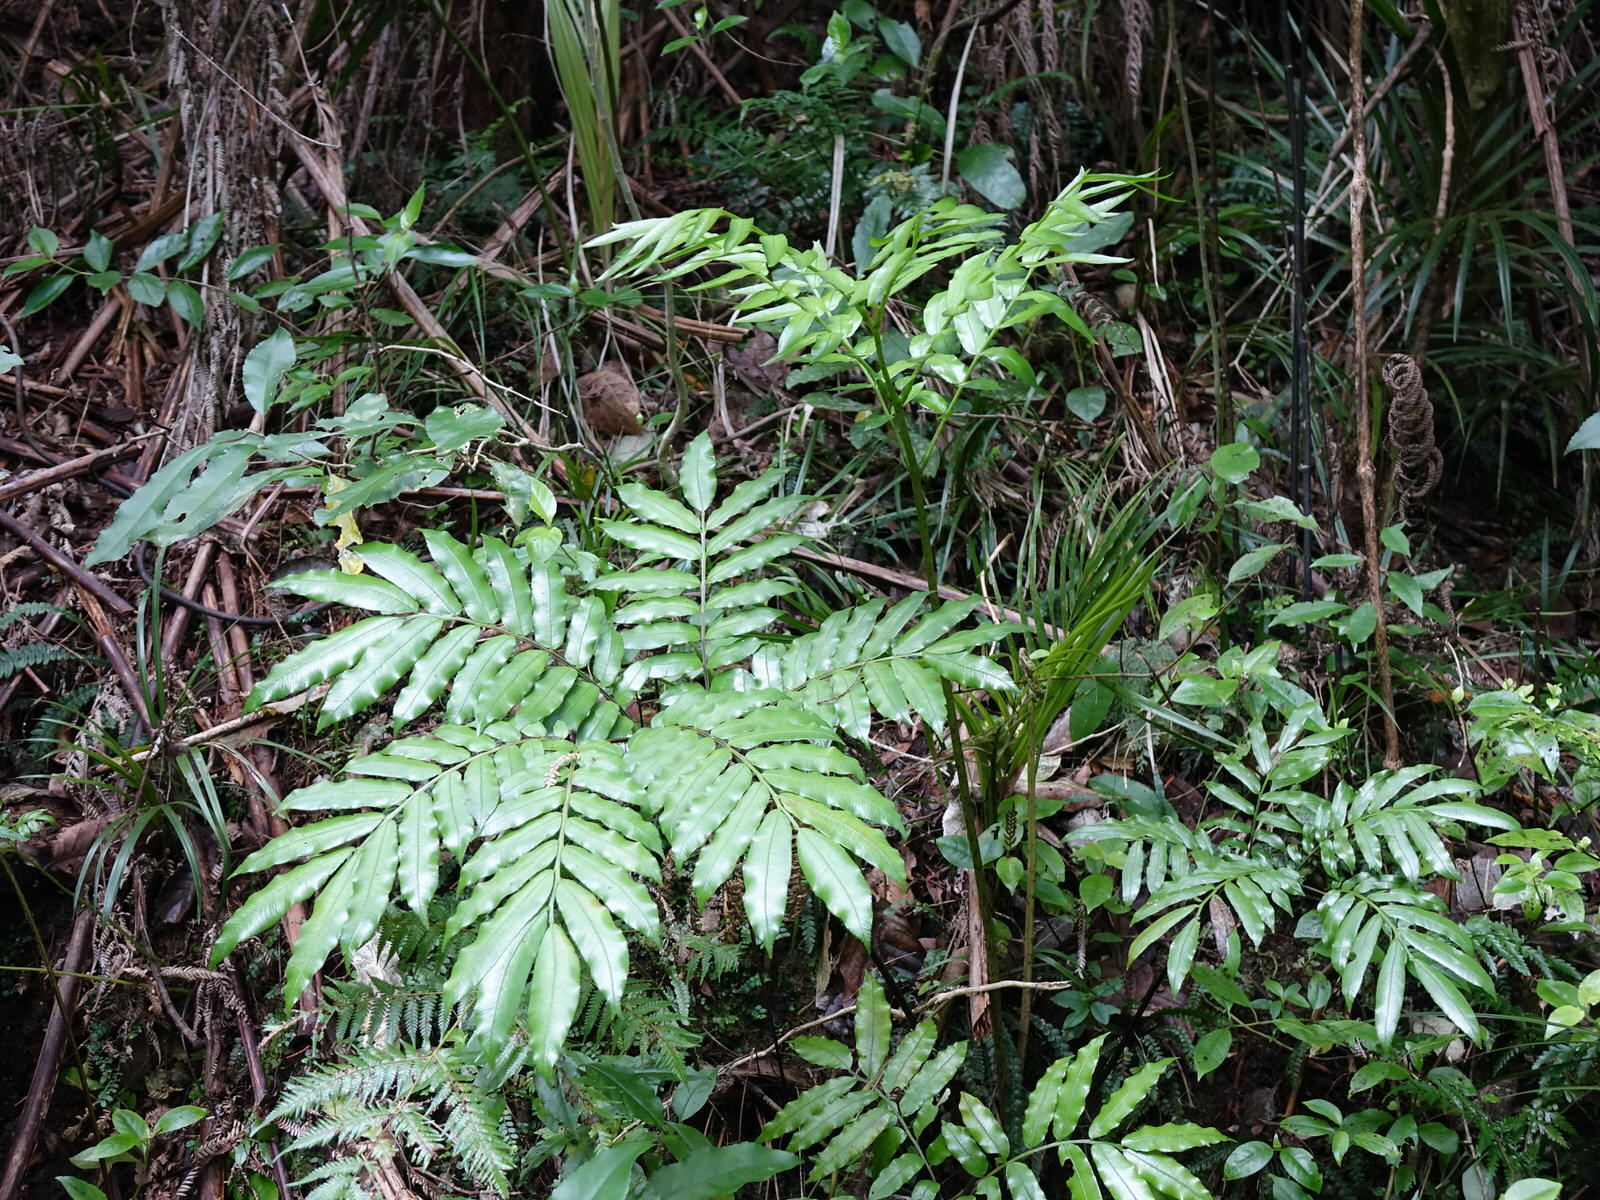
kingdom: Plantae
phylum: Tracheophyta
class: Polypodiopsida
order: Marattiales
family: Marattiaceae
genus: Ptisana
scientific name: Ptisana salicina
